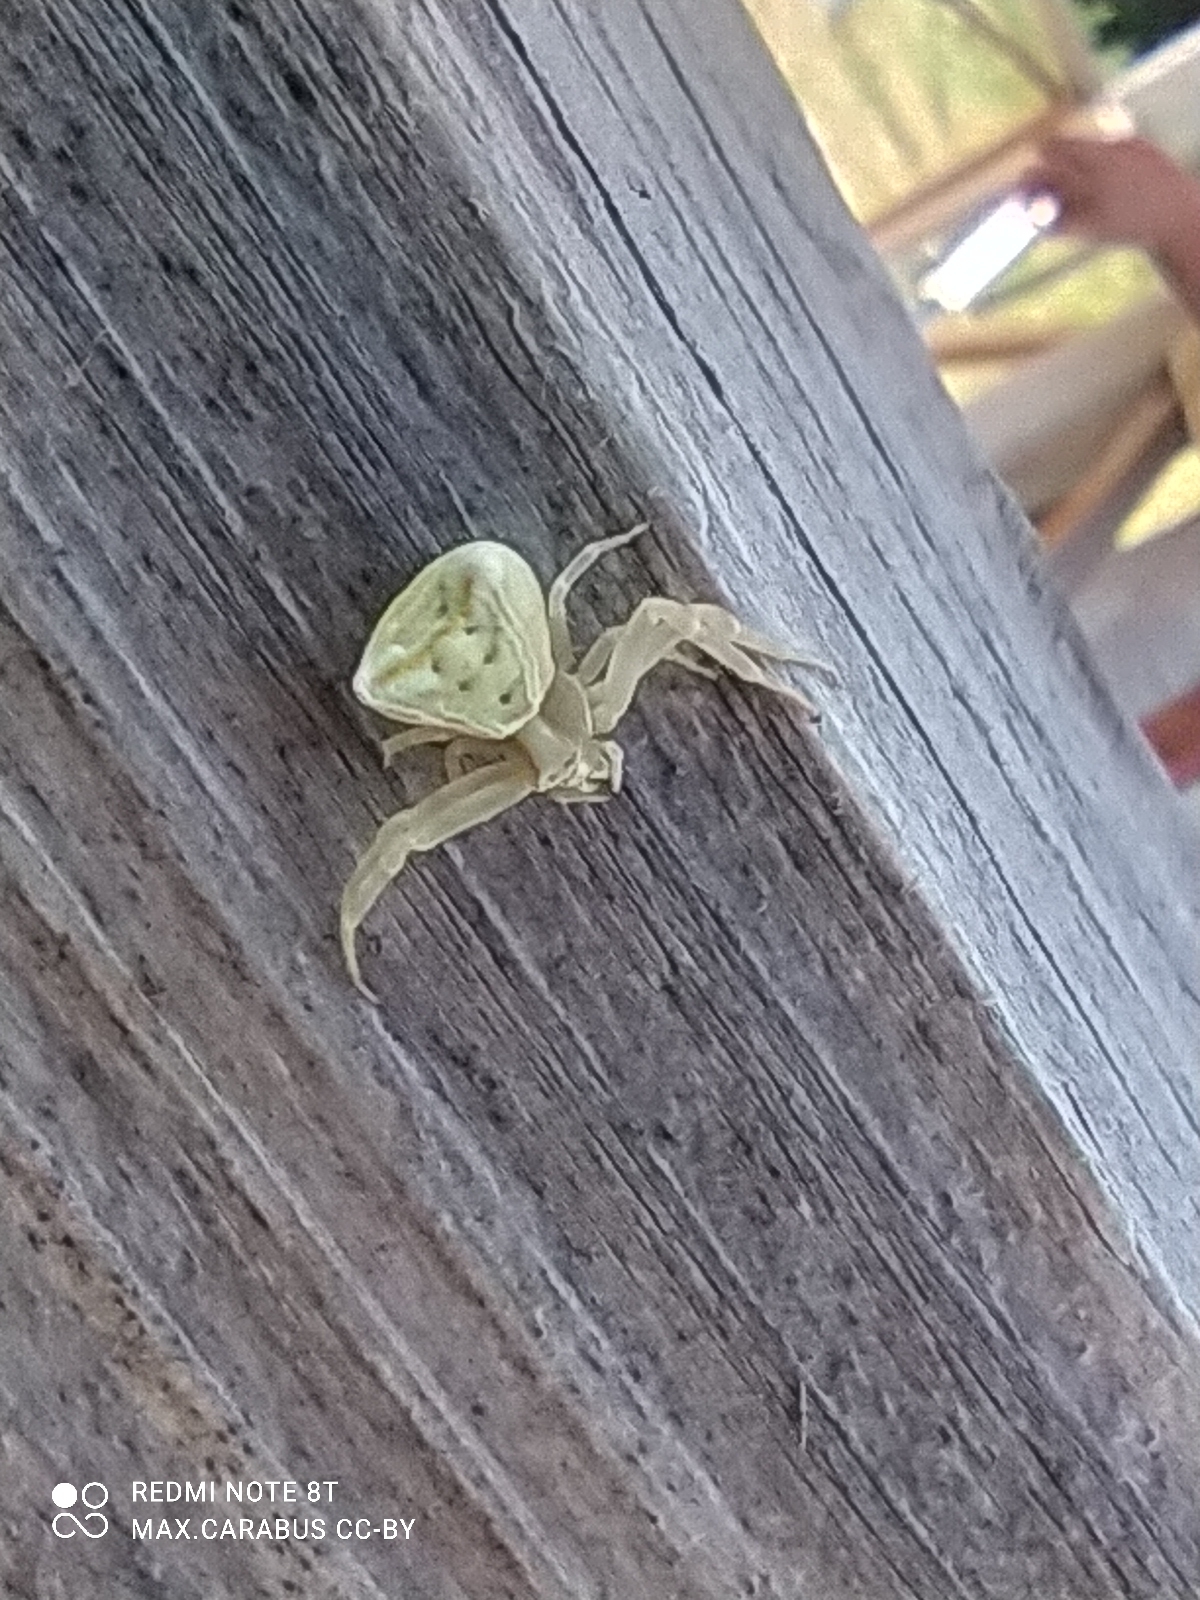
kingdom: Animalia
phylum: Arthropoda
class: Arachnida
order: Araneae
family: Thomisidae
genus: Thomisus
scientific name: Thomisus onustus
